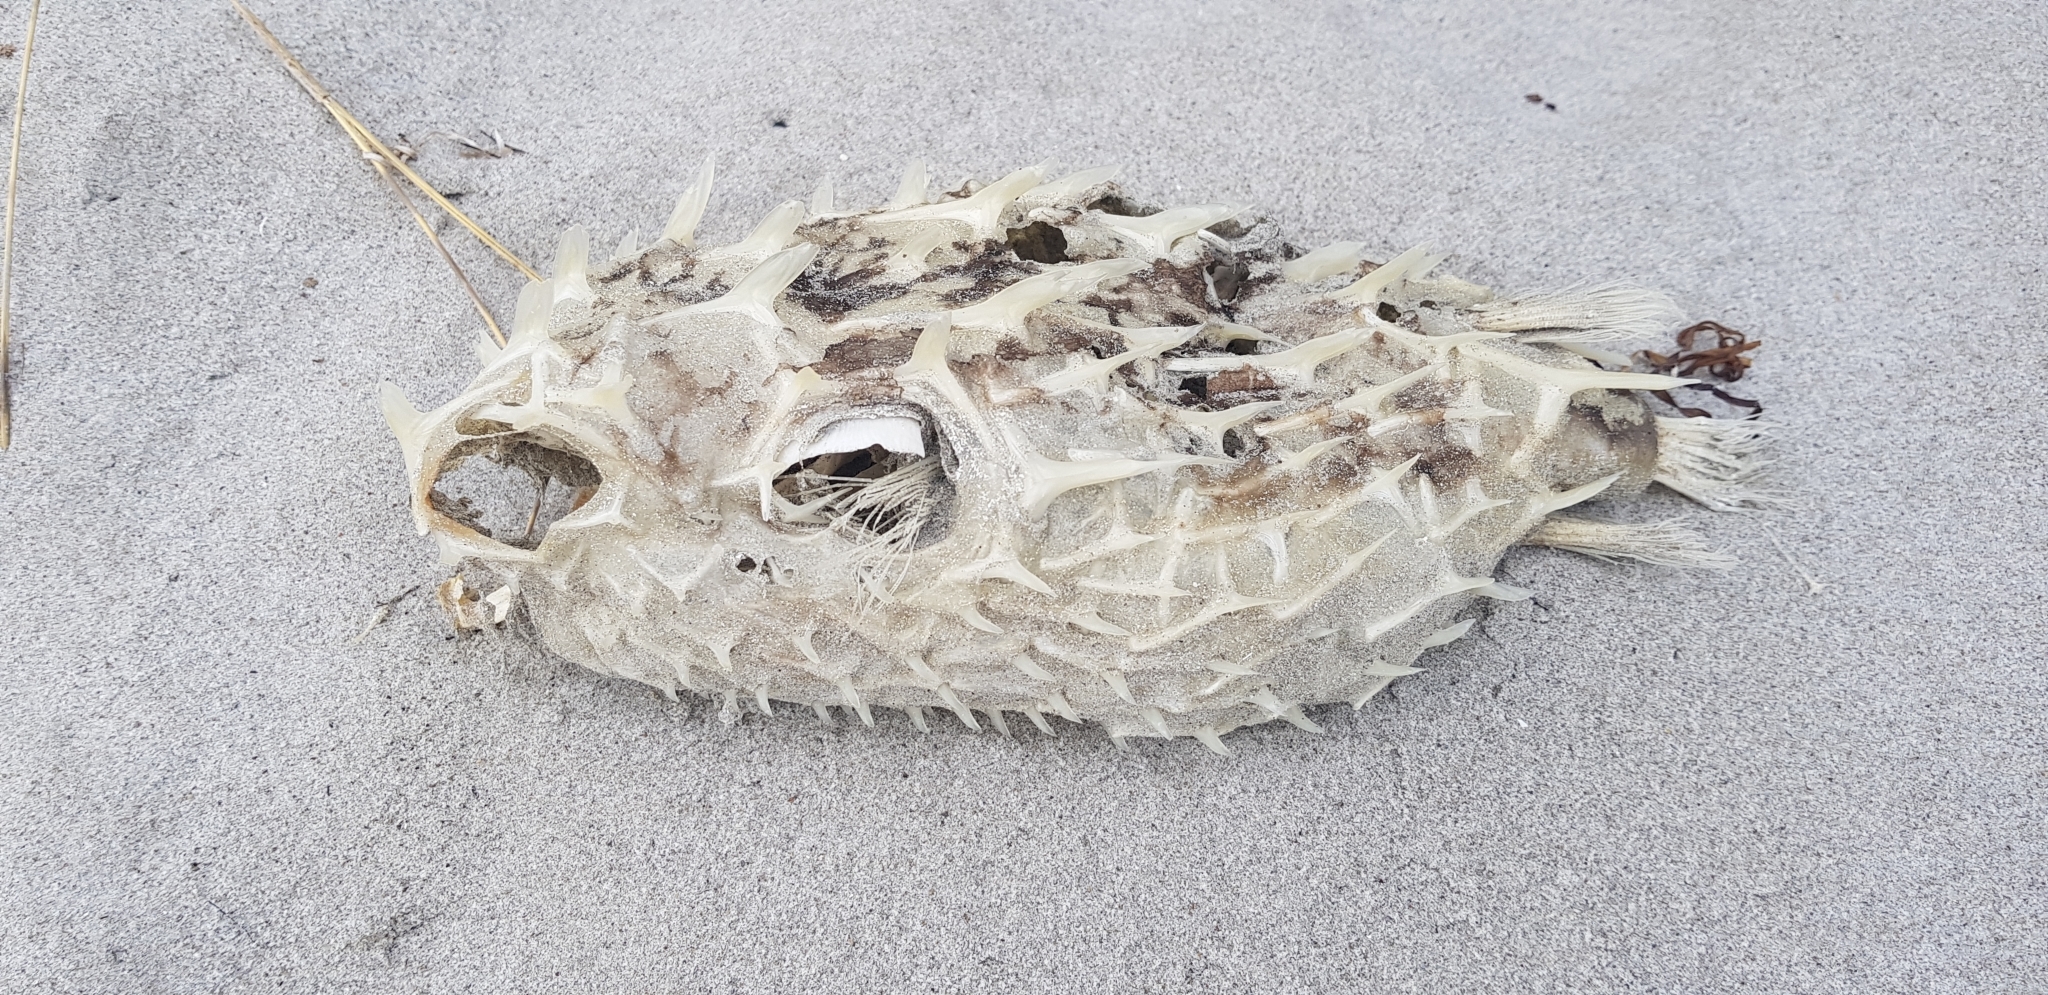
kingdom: Animalia
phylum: Chordata
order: Tetraodontiformes
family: Diodontidae
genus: Allomycterus
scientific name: Allomycterus pilatus
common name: No common name
